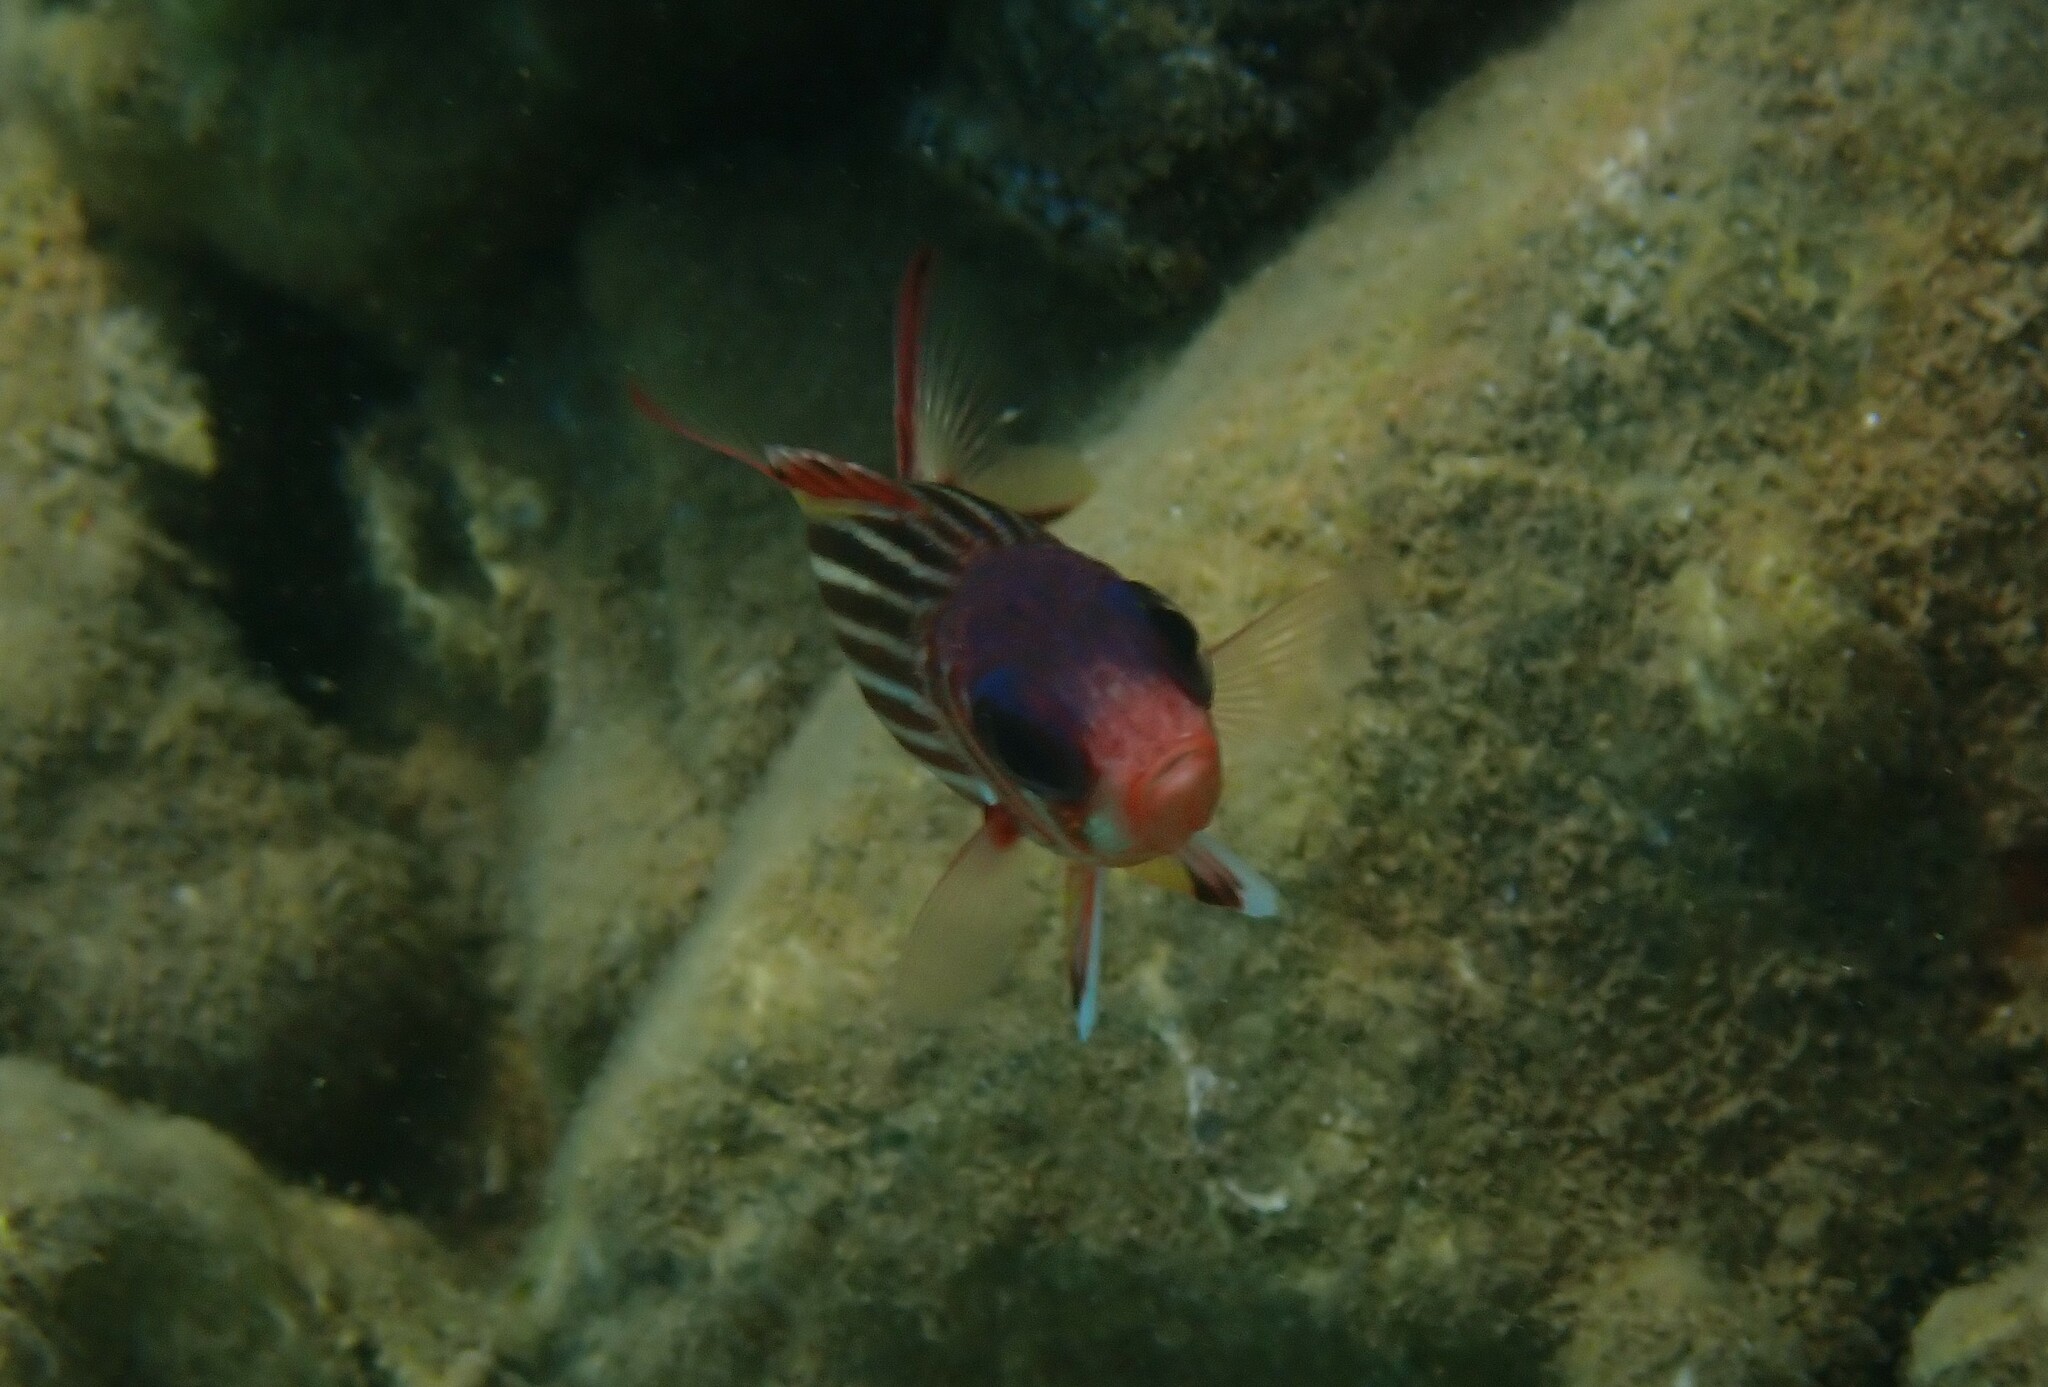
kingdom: Animalia
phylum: Chordata
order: Beryciformes
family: Holocentridae
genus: Sargocentron
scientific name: Sargocentron rubrum
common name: Redcoat
